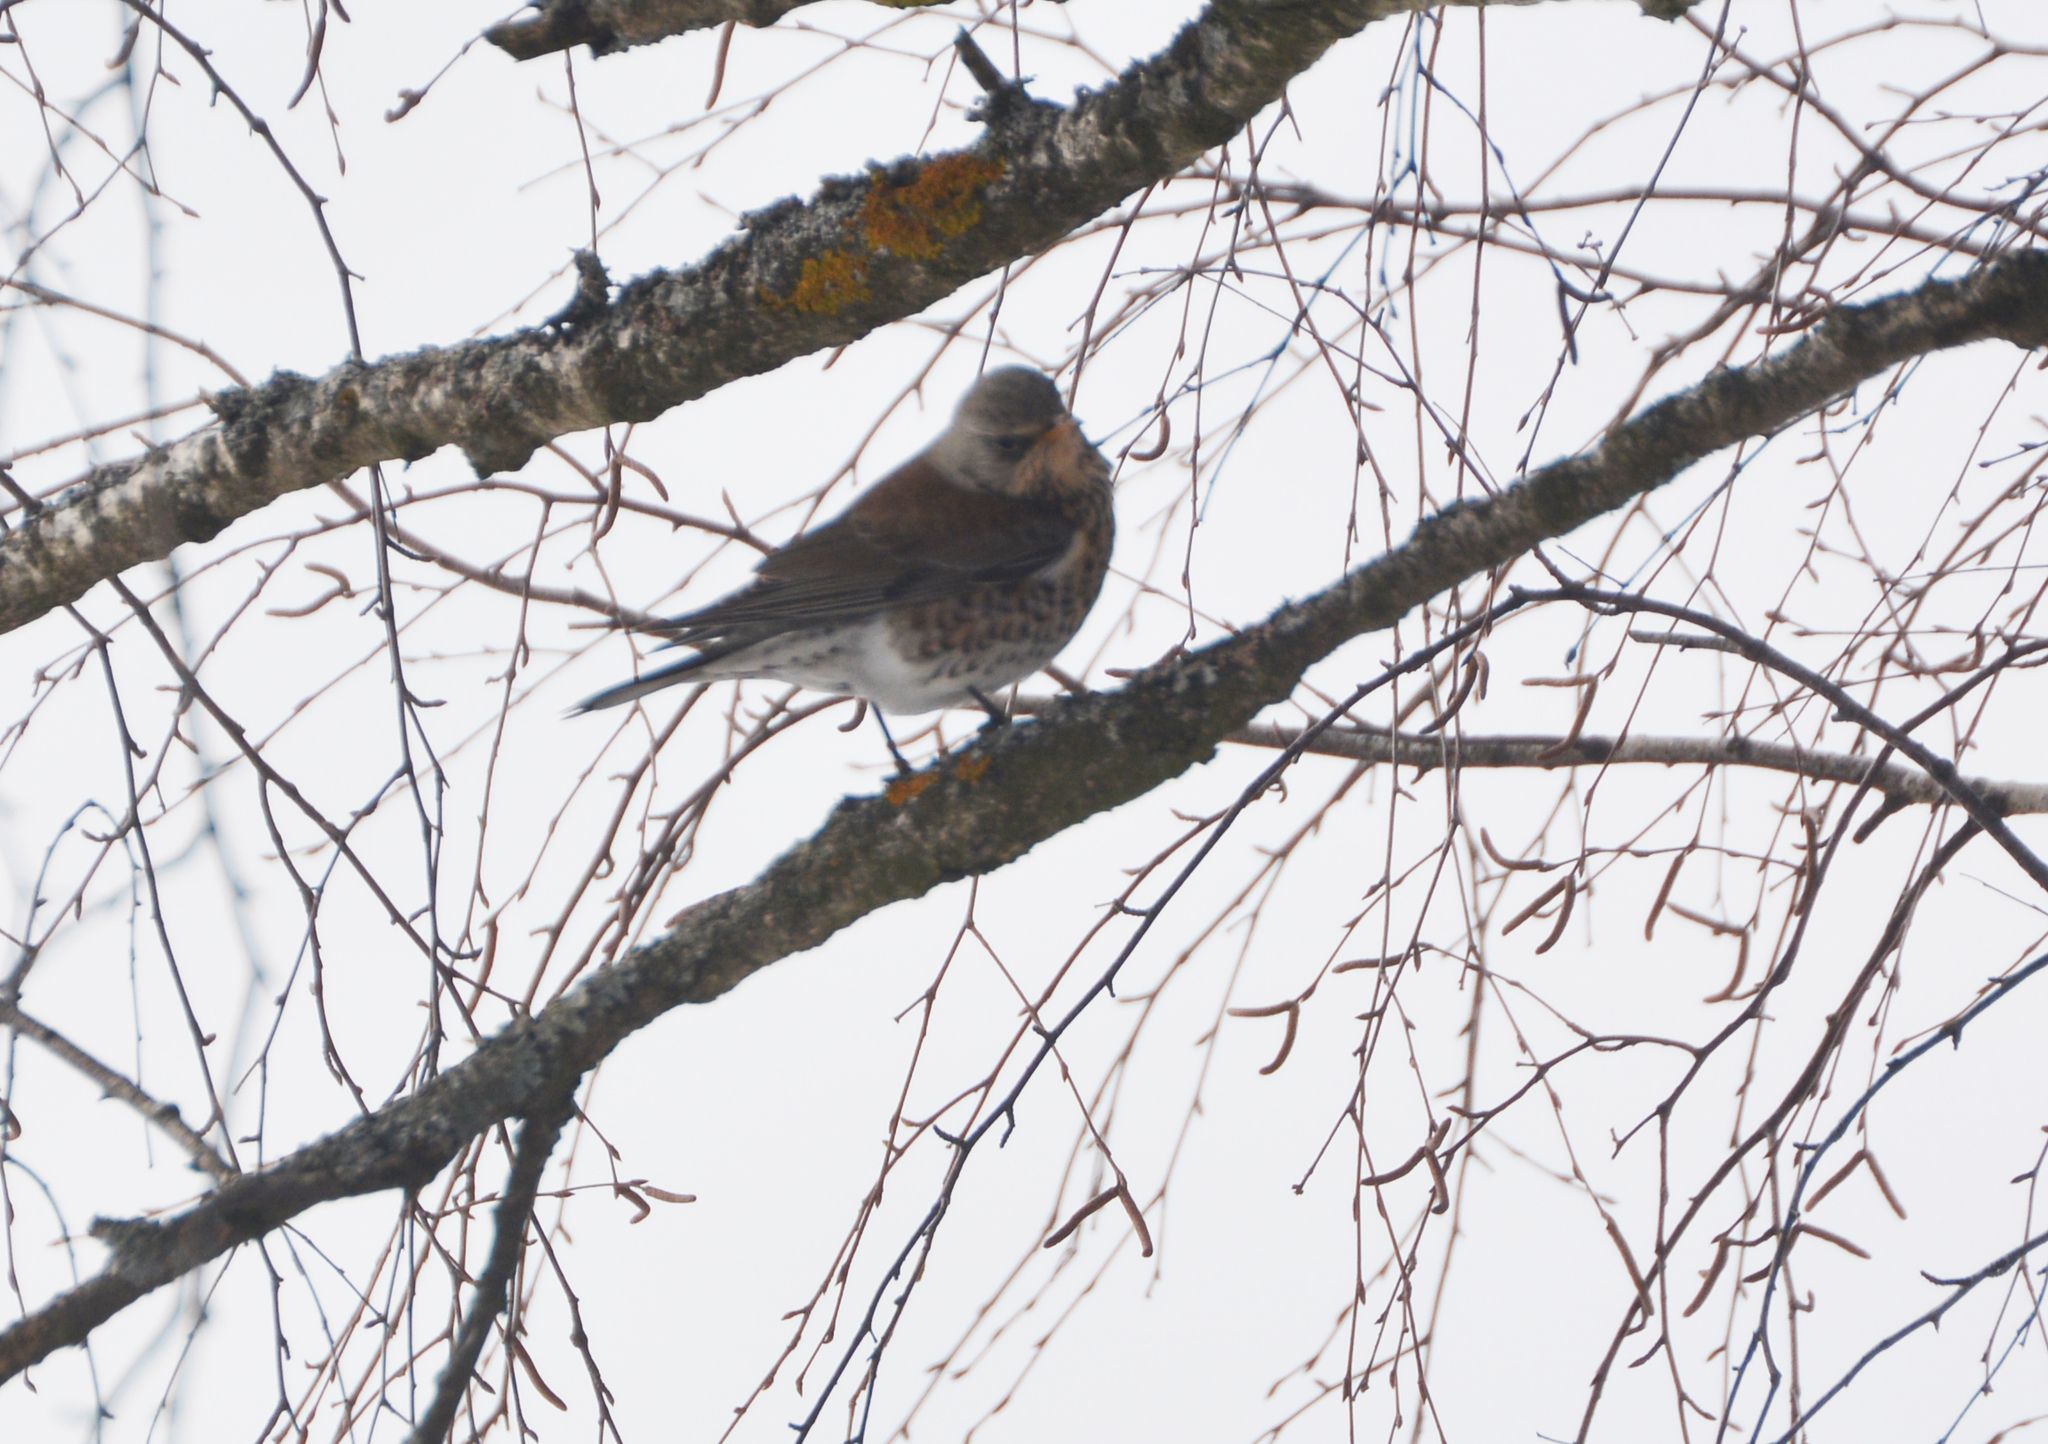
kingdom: Animalia
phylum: Chordata
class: Aves
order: Passeriformes
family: Turdidae
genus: Turdus
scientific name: Turdus pilaris
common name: Fieldfare
